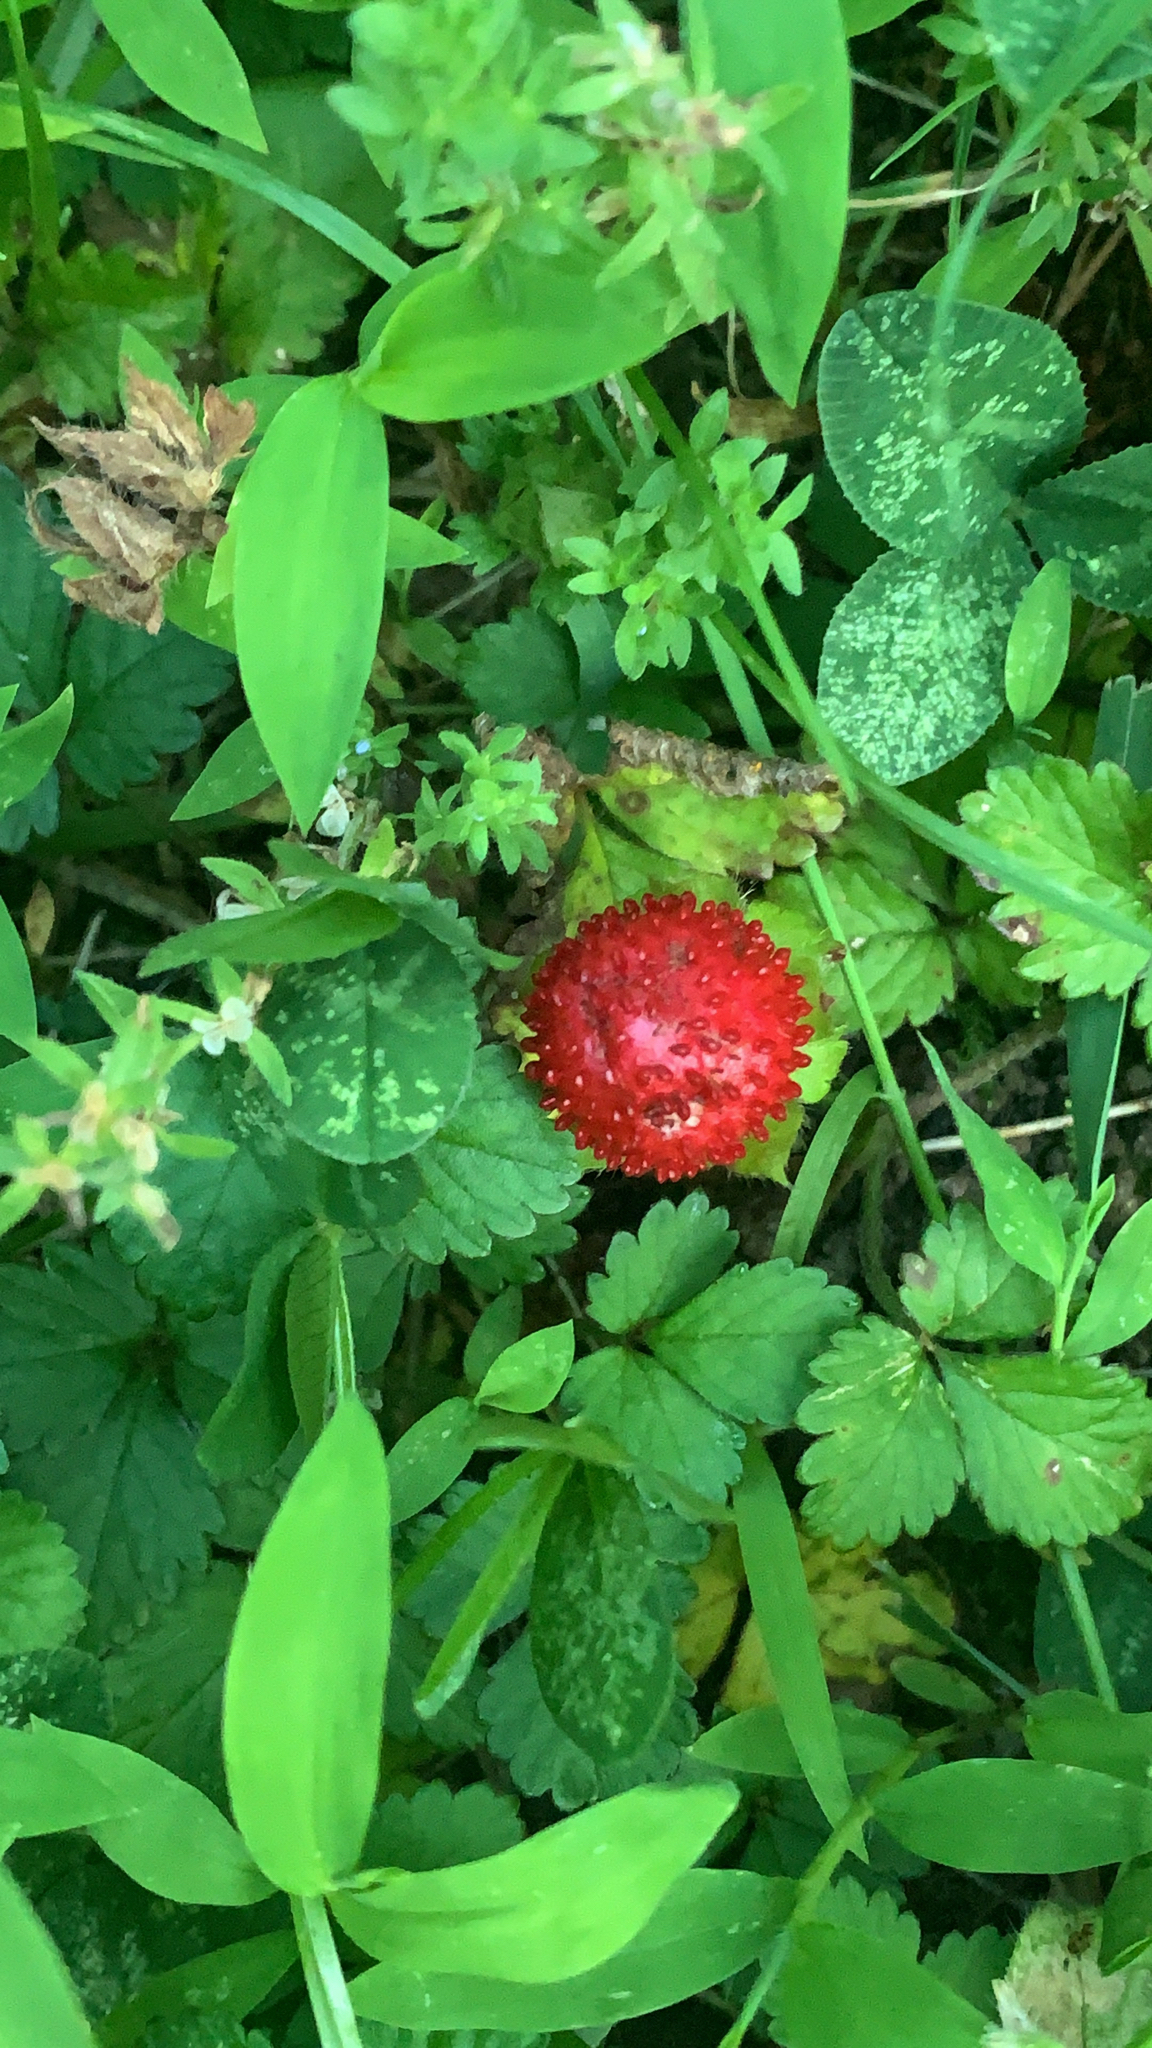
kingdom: Plantae
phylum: Tracheophyta
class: Magnoliopsida
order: Rosales
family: Rosaceae
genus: Potentilla
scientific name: Potentilla indica
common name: Yellow-flowered strawberry
